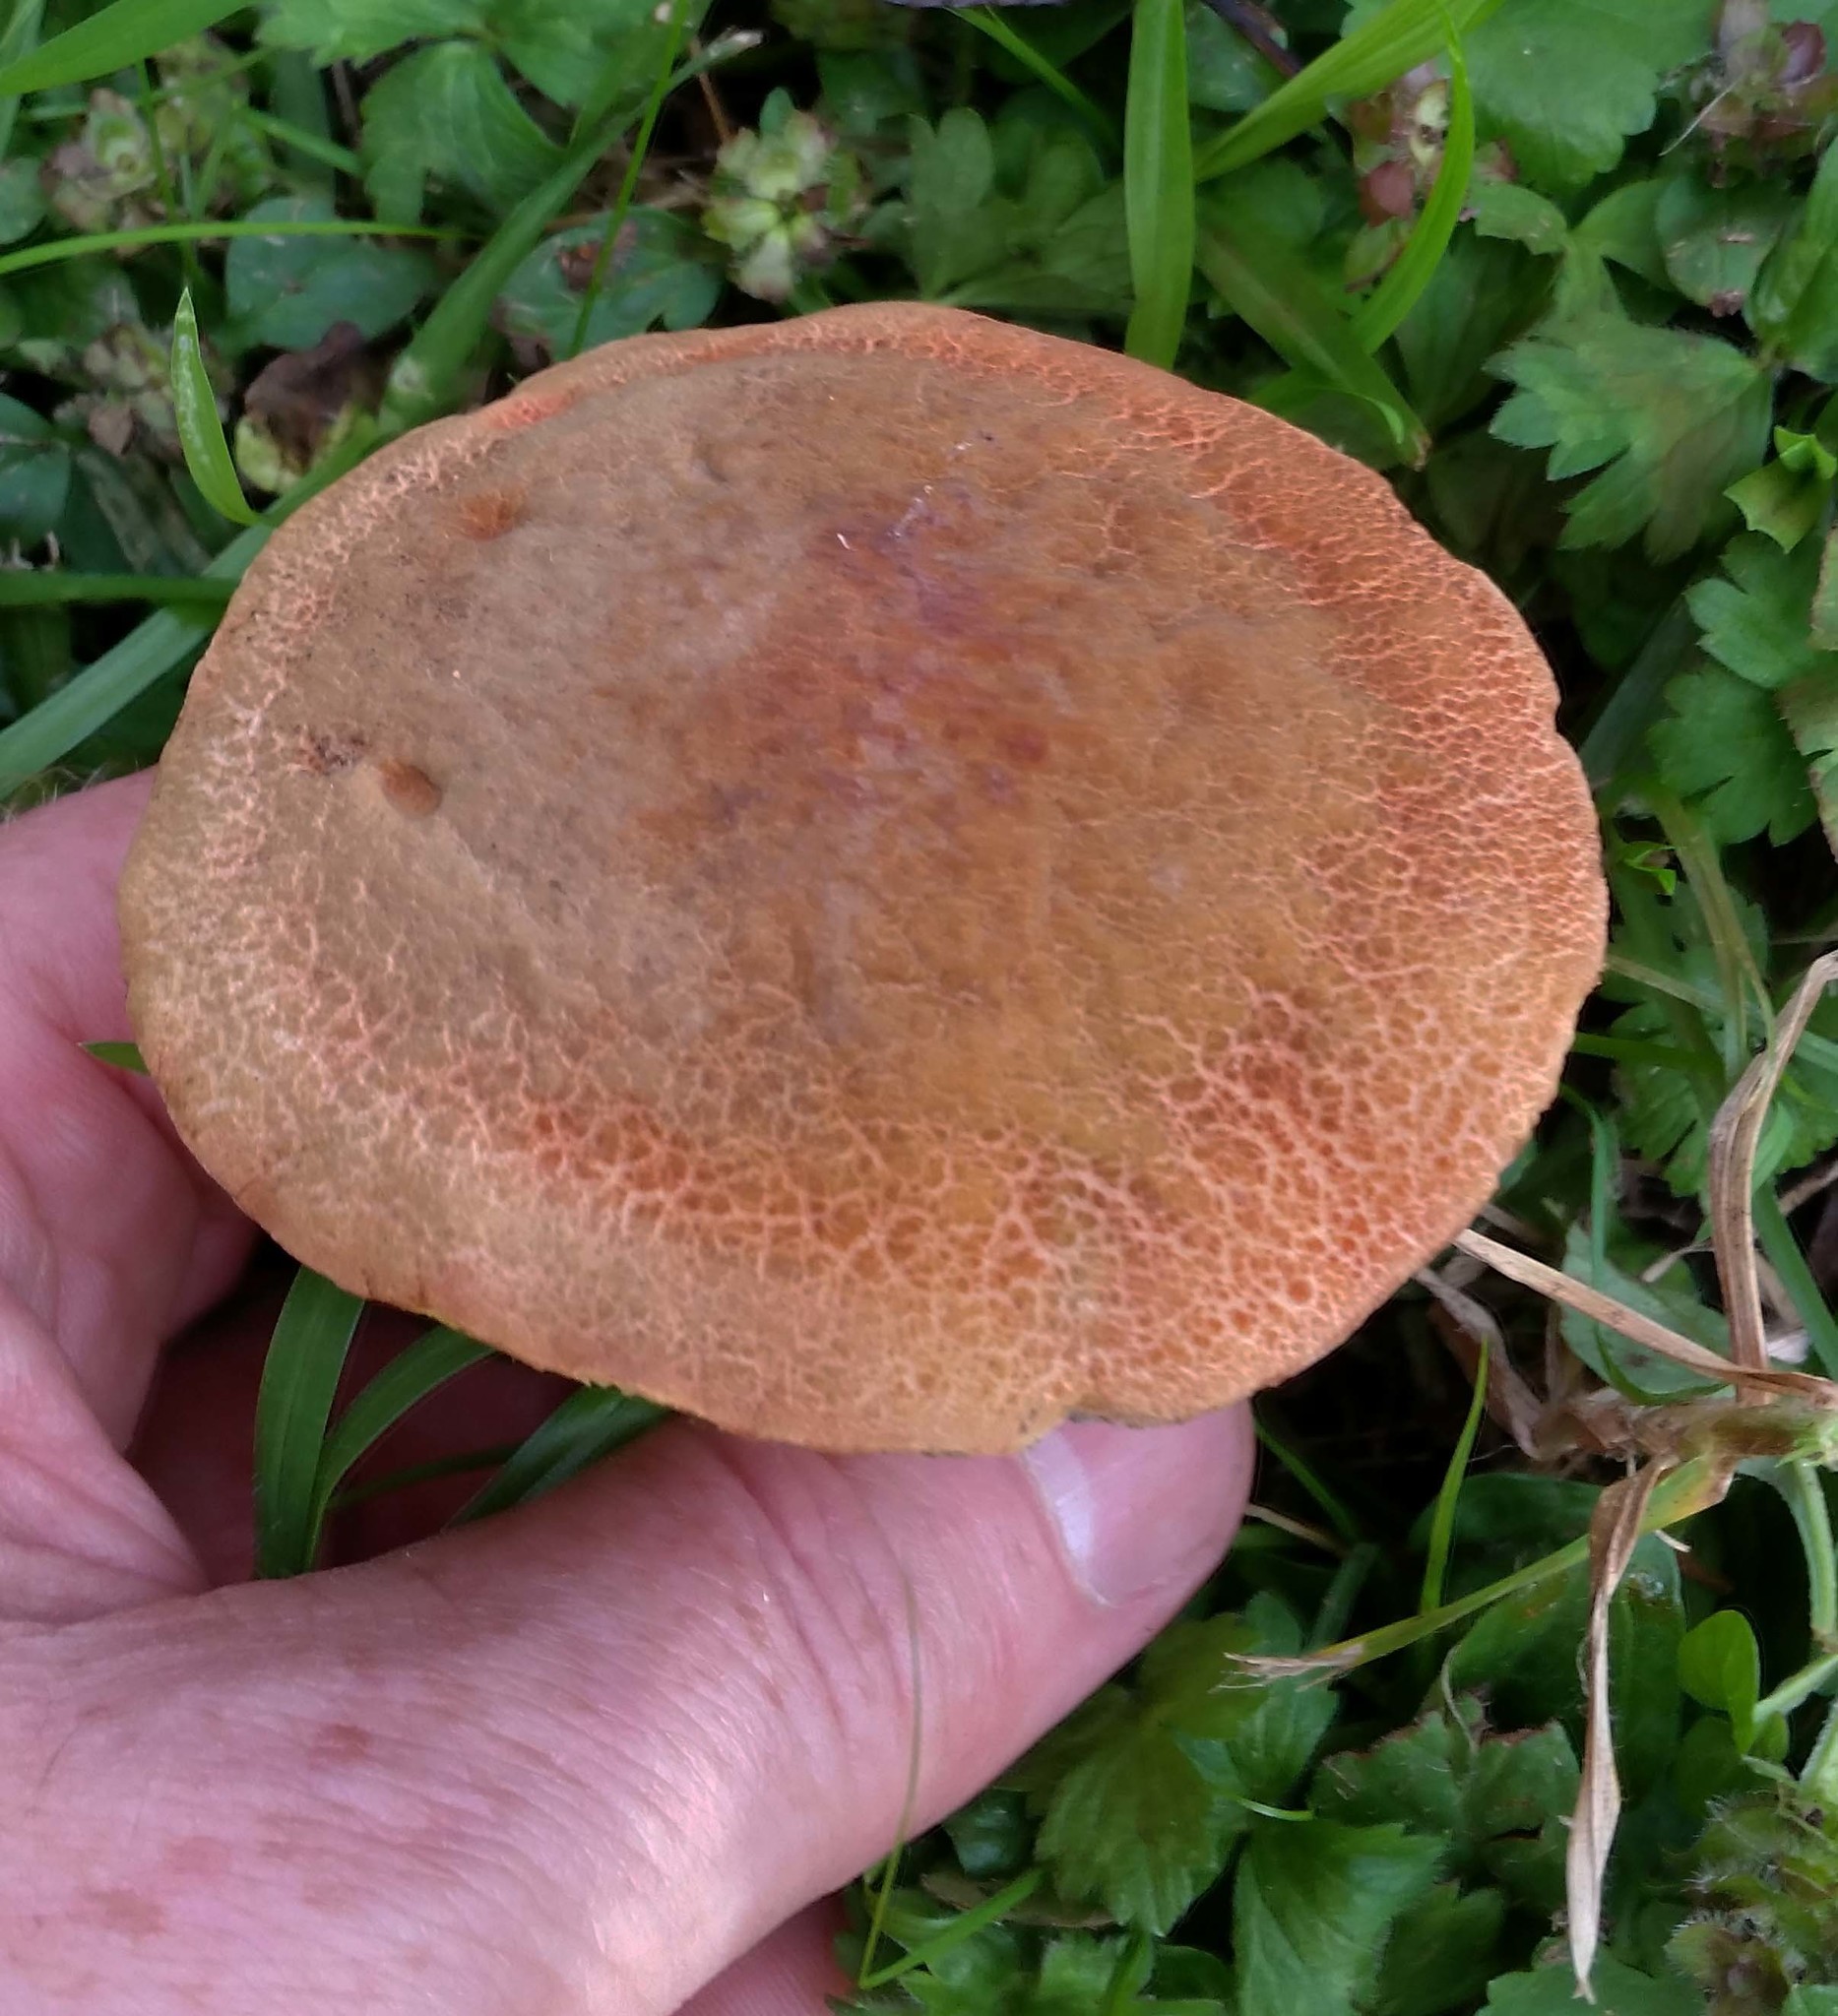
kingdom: Fungi
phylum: Basidiomycota
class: Agaricomycetes
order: Boletales
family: Boletaceae
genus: Xerocomellus
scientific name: Xerocomellus ripariellus
